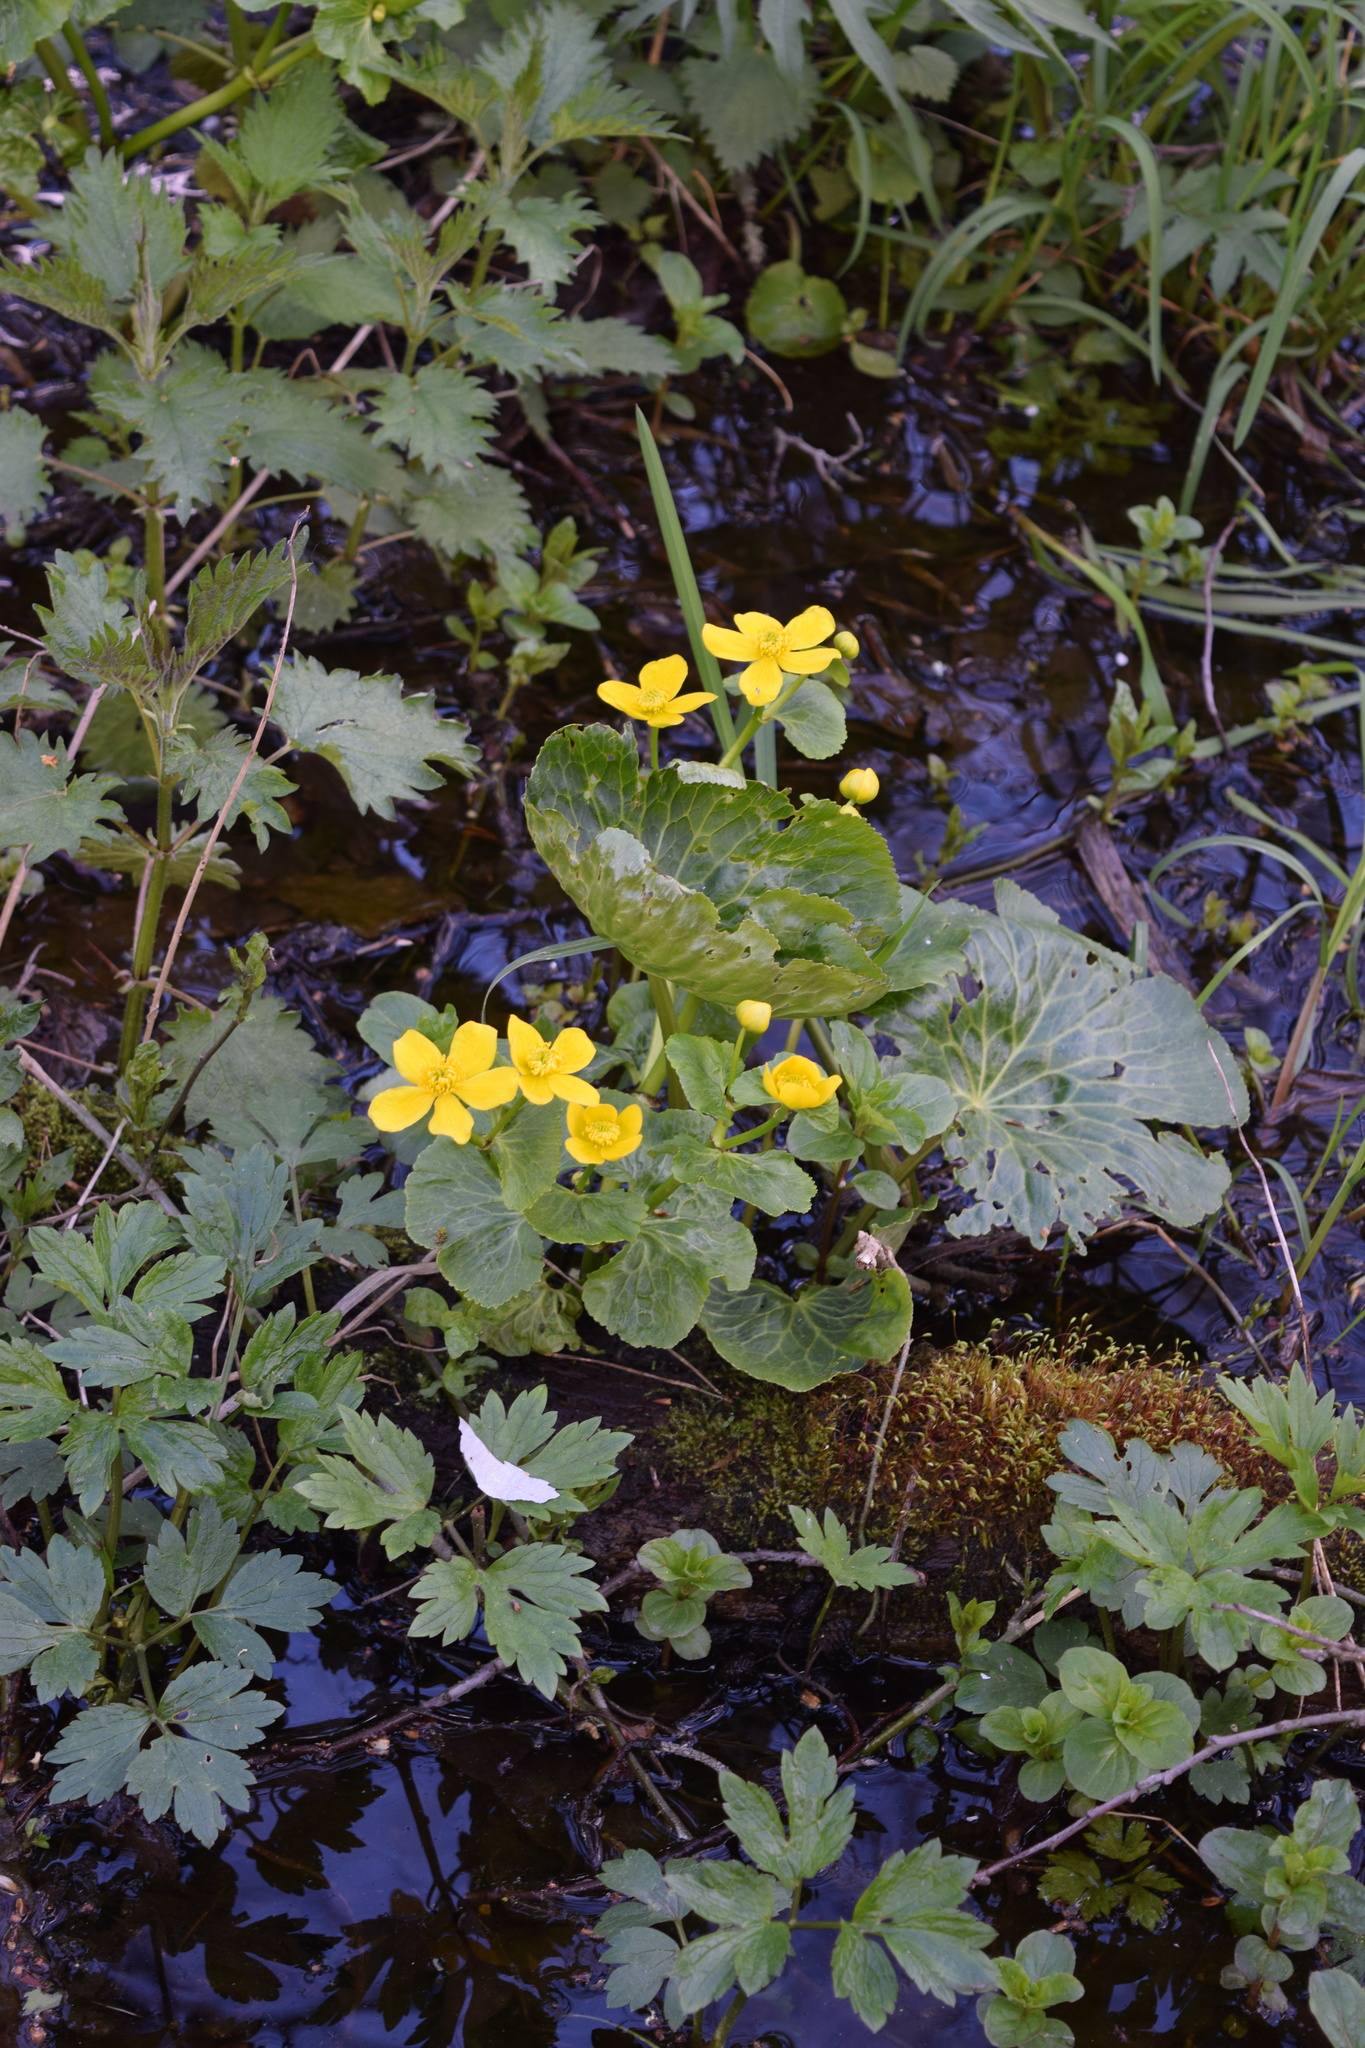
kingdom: Plantae
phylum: Tracheophyta
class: Magnoliopsida
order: Ranunculales
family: Ranunculaceae
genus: Caltha
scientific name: Caltha palustris
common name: Marsh marigold
